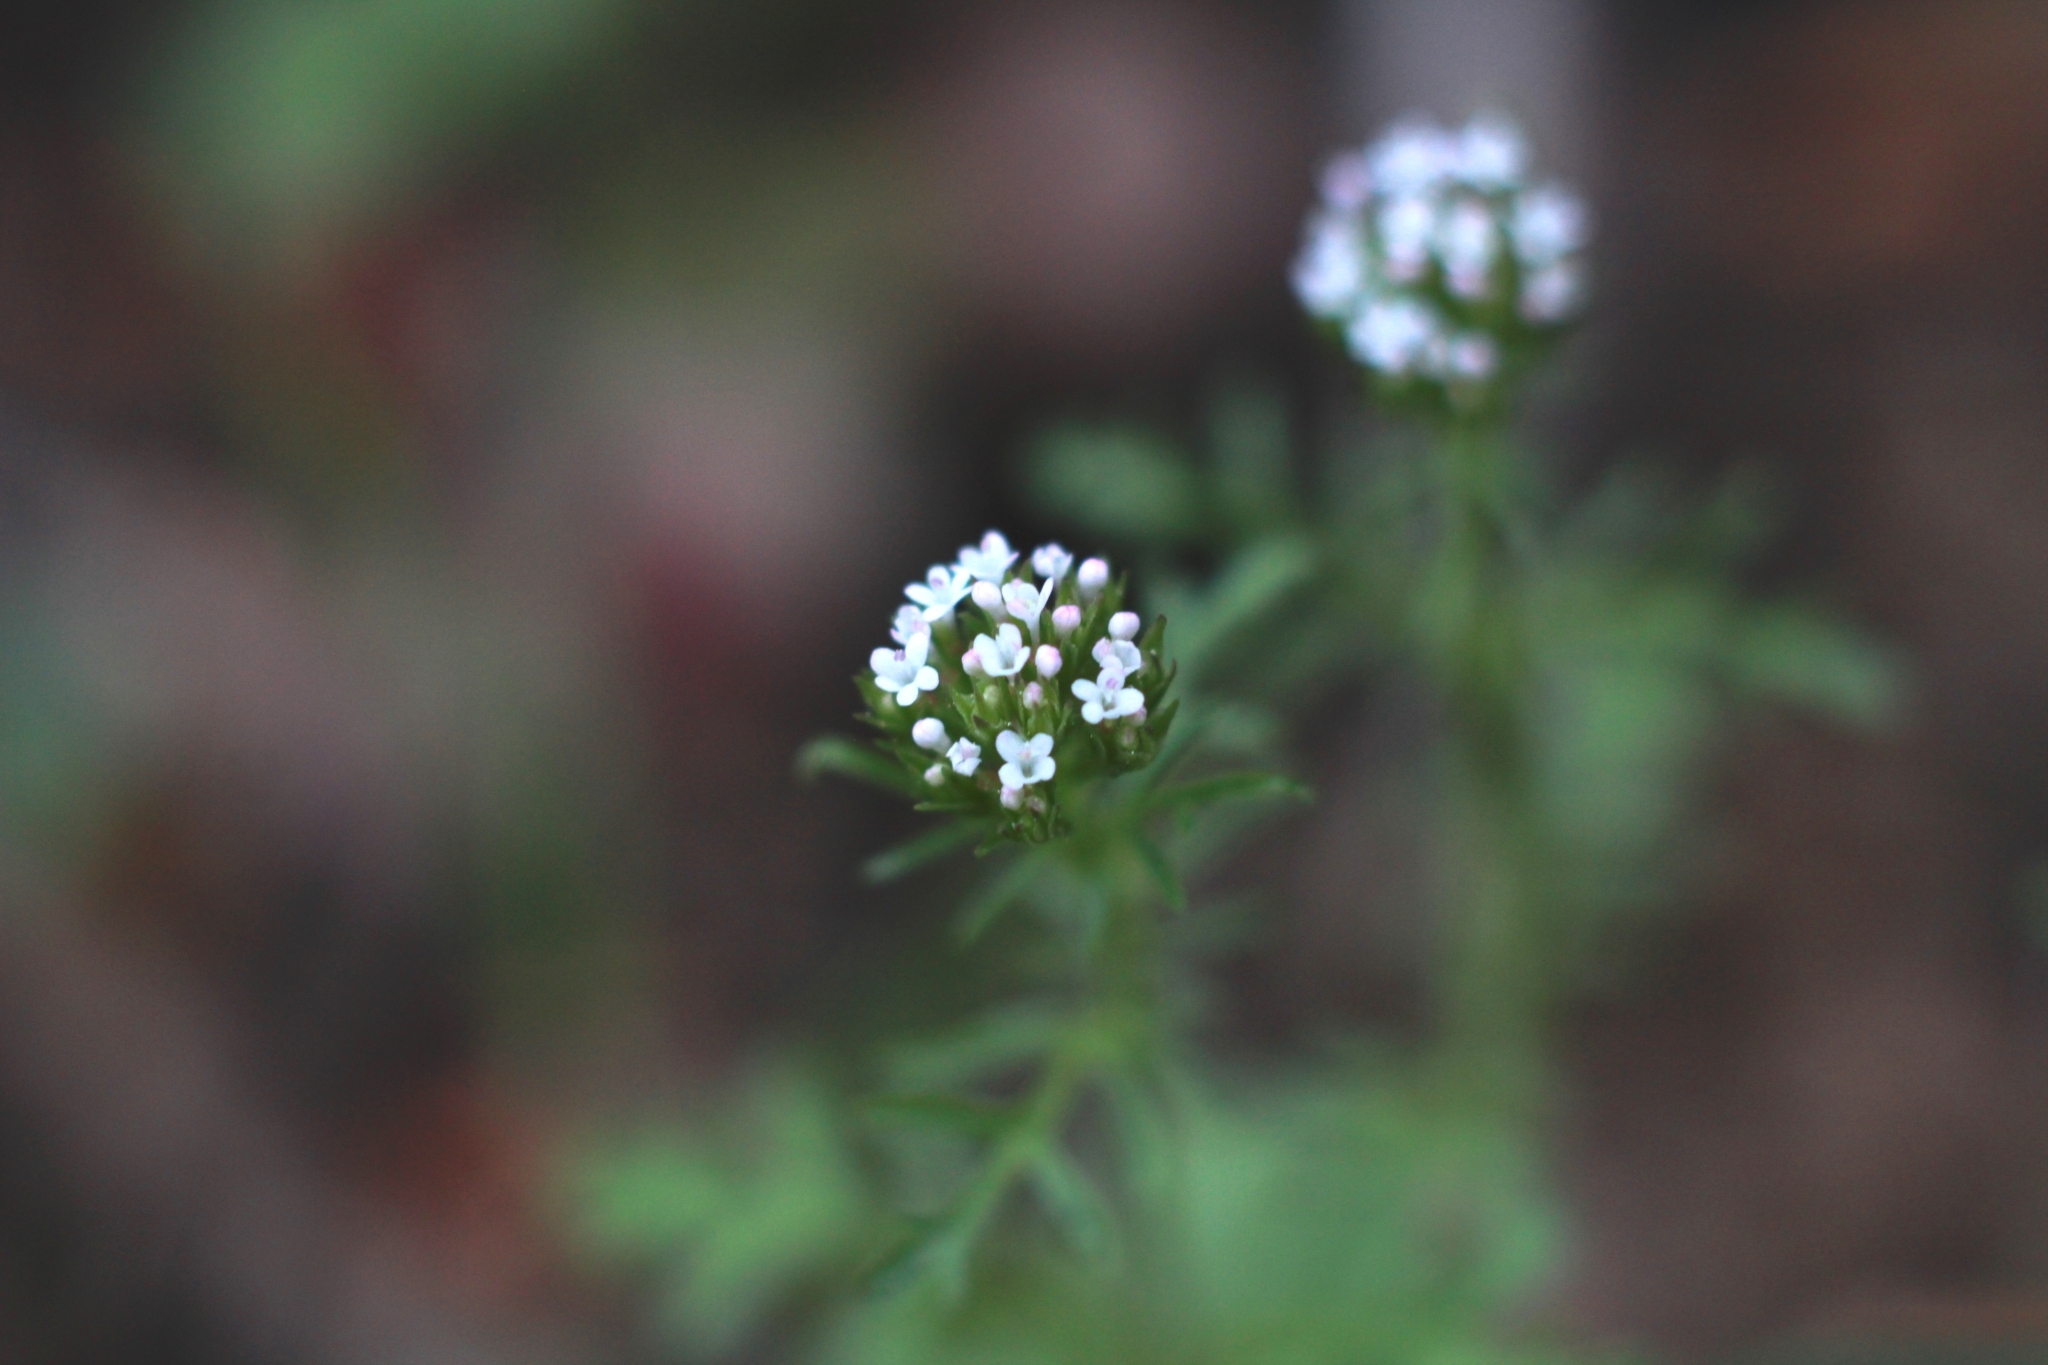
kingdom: Plantae
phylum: Tracheophyta
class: Magnoliopsida
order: Dipsacales
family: Caprifoliaceae
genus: Centranthus
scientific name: Centranthus calcitrapae
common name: Annual valerian
